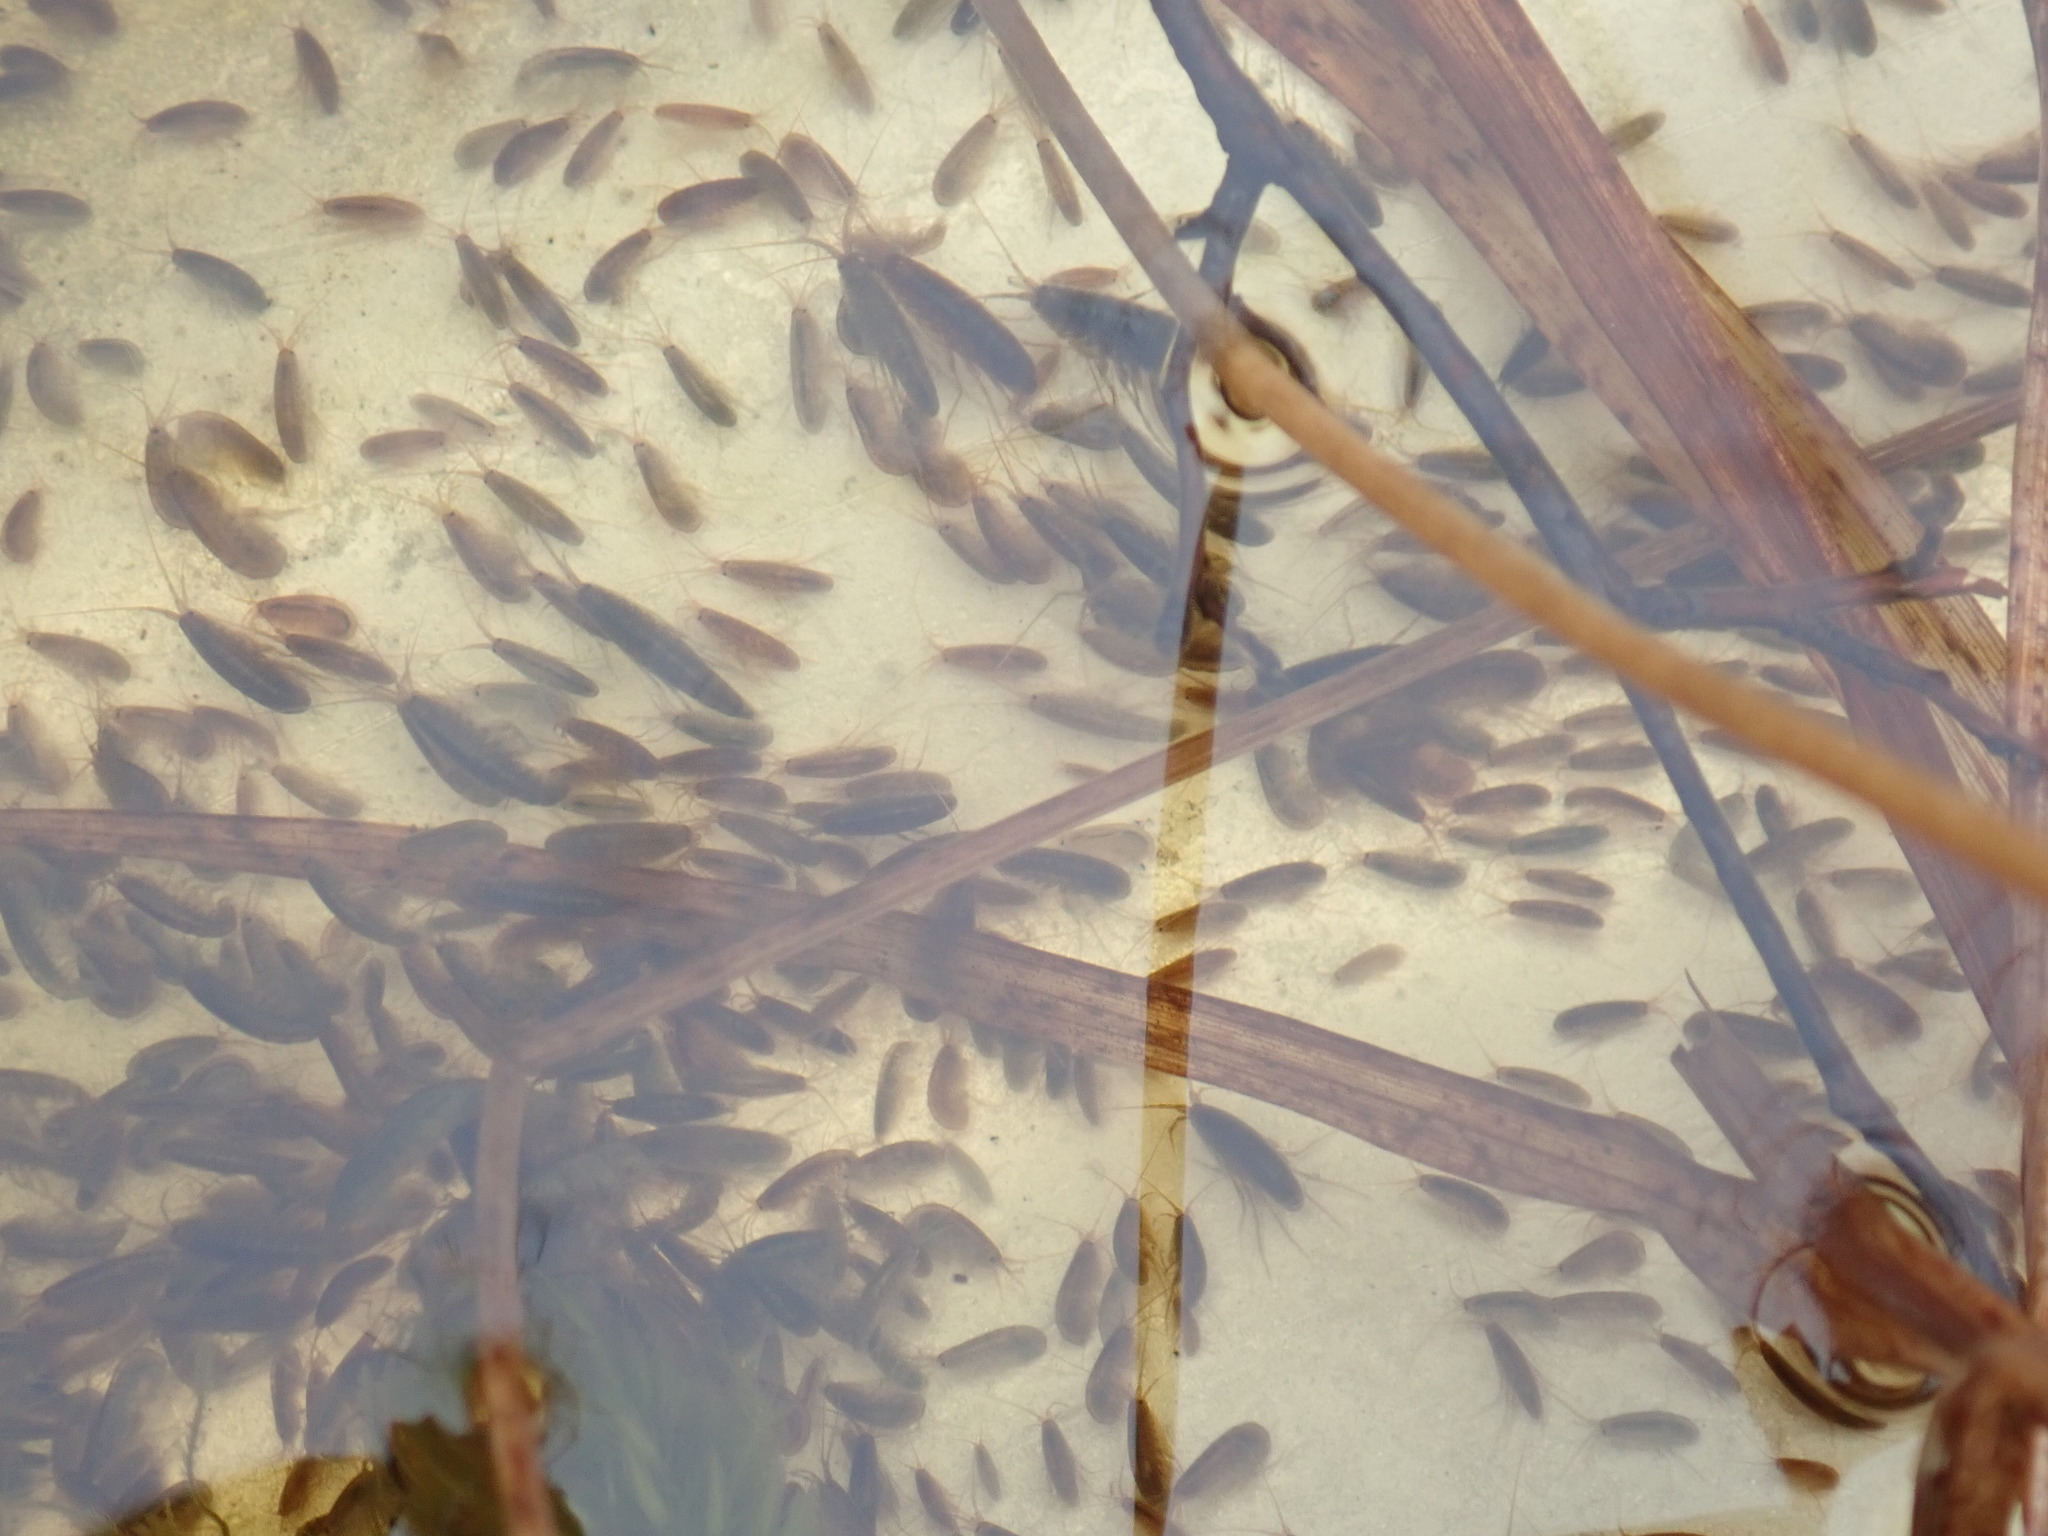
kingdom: Animalia
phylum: Arthropoda
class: Malacostraca
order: Amphipoda
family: Crangonyctidae
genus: Sicifera
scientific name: Sicifera chamberlaini
